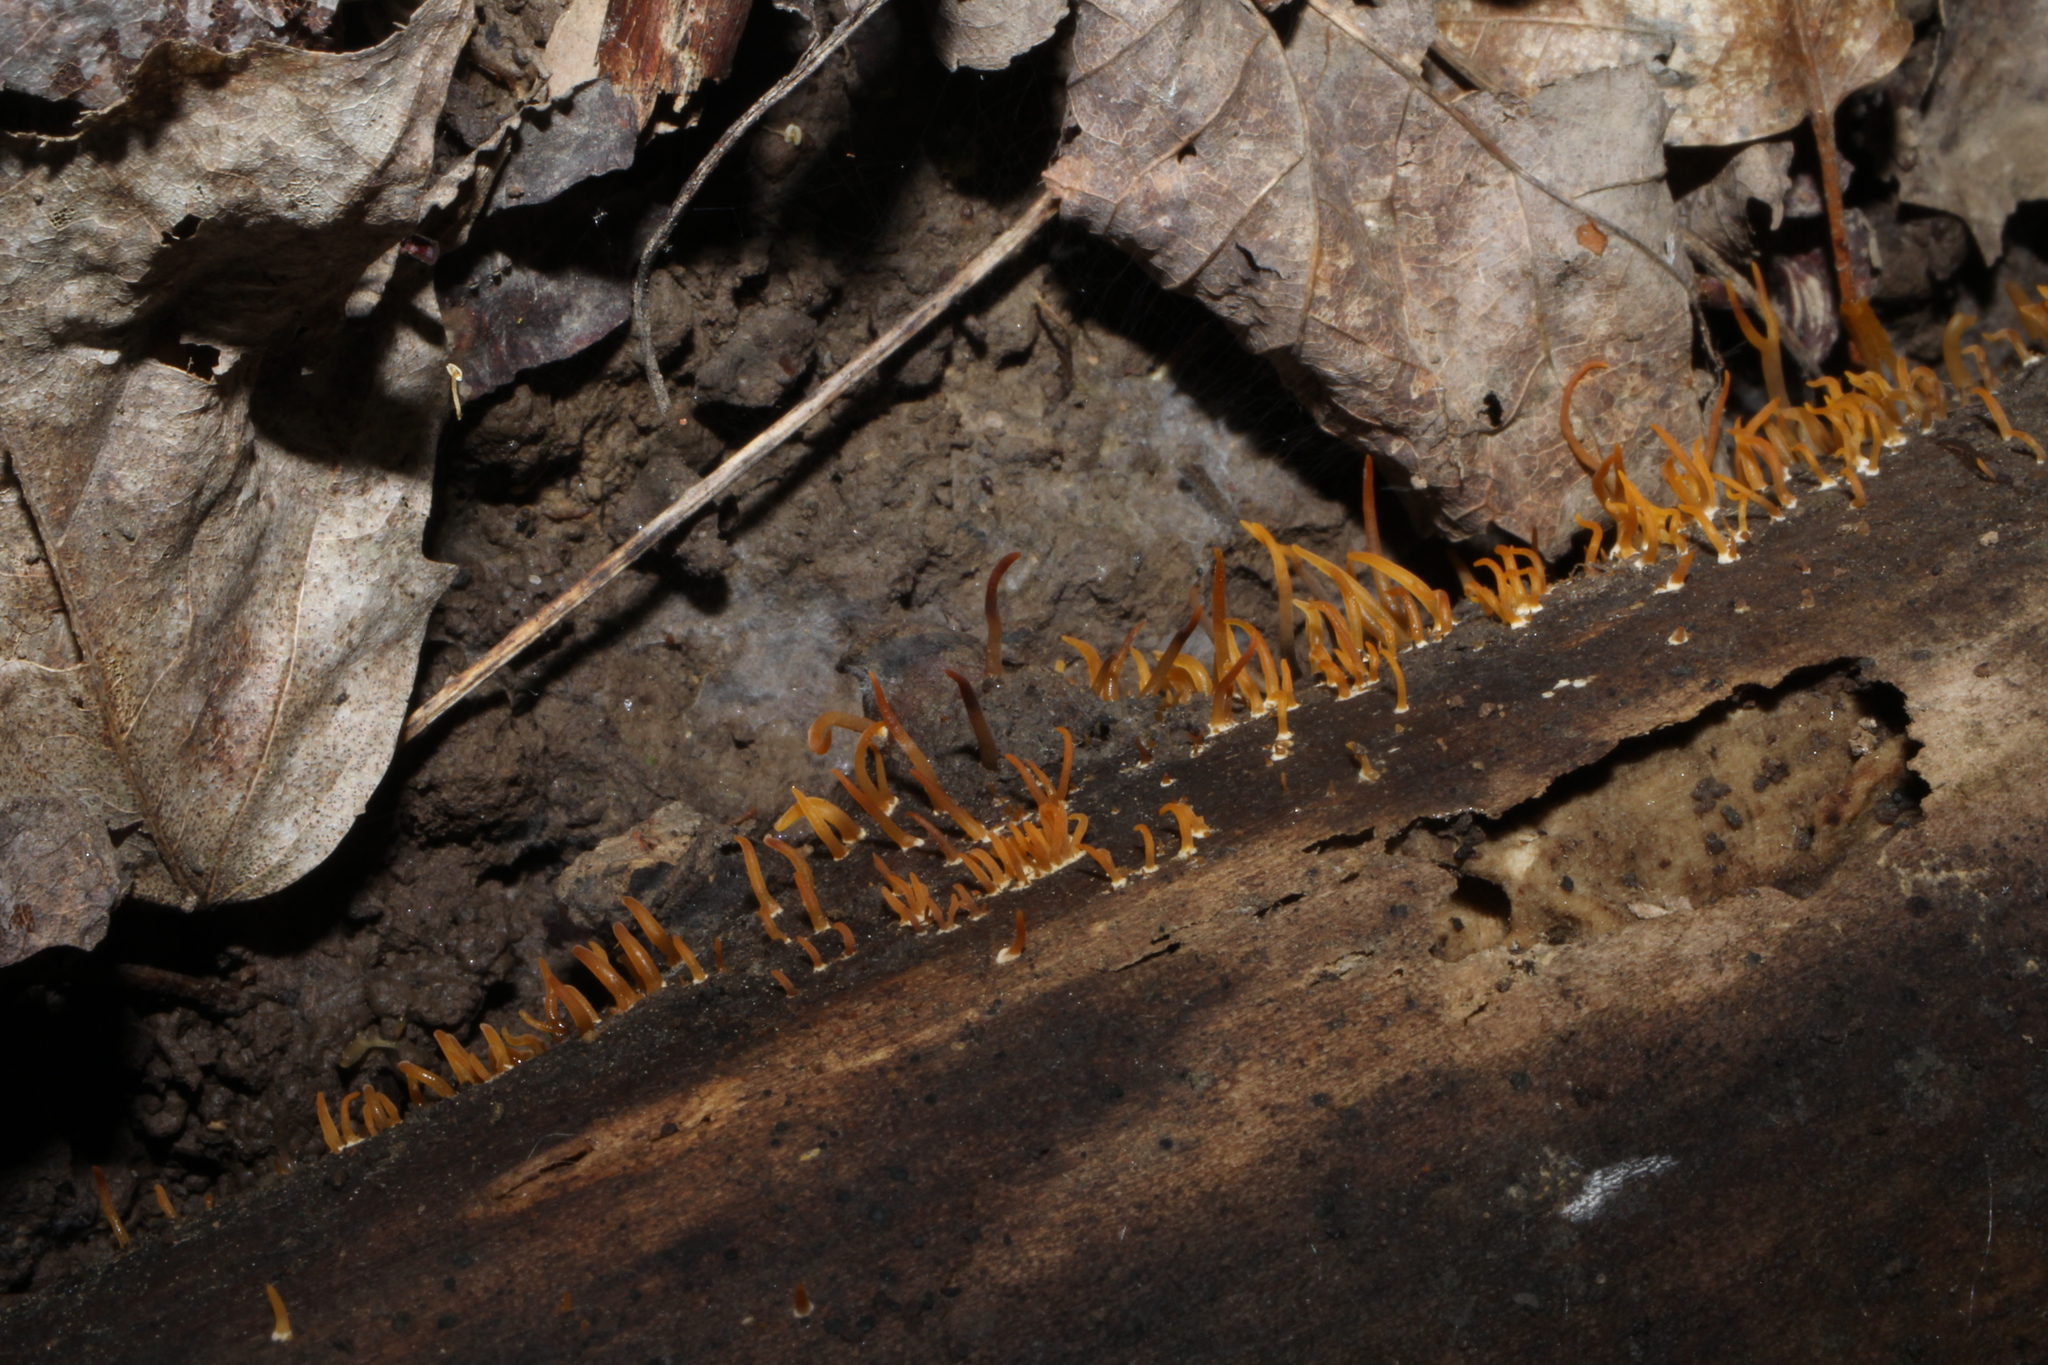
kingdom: Fungi
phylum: Basidiomycota
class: Dacrymycetes
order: Dacrymycetales
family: Dacrymycetaceae
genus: Calocera
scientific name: Calocera cornea
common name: Small stagshorn
